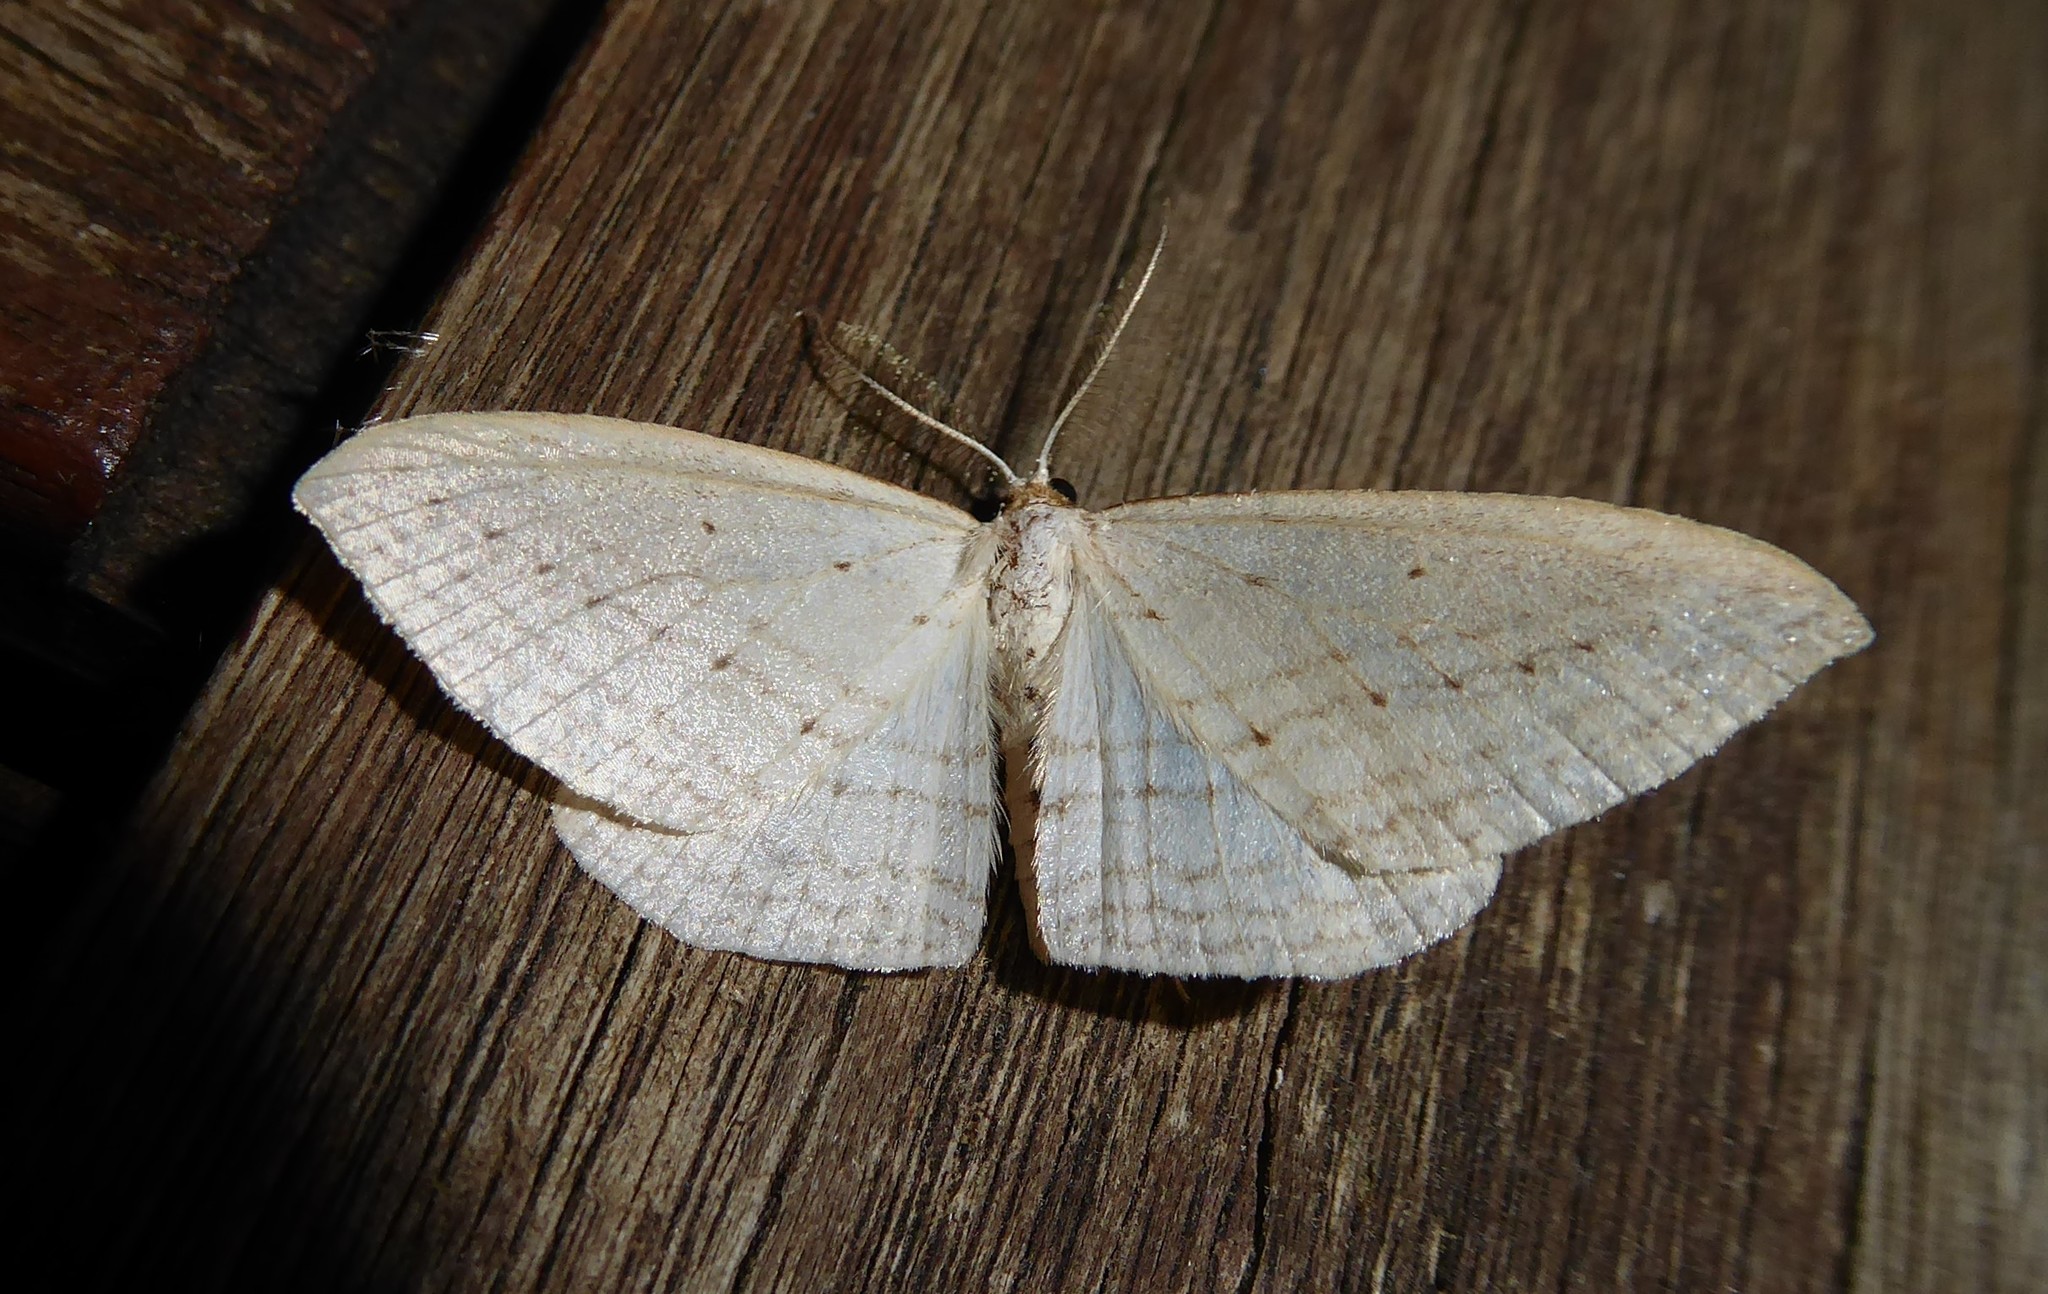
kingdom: Animalia
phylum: Arthropoda
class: Insecta
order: Lepidoptera
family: Geometridae
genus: Orthoclydon
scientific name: Orthoclydon praefectata
